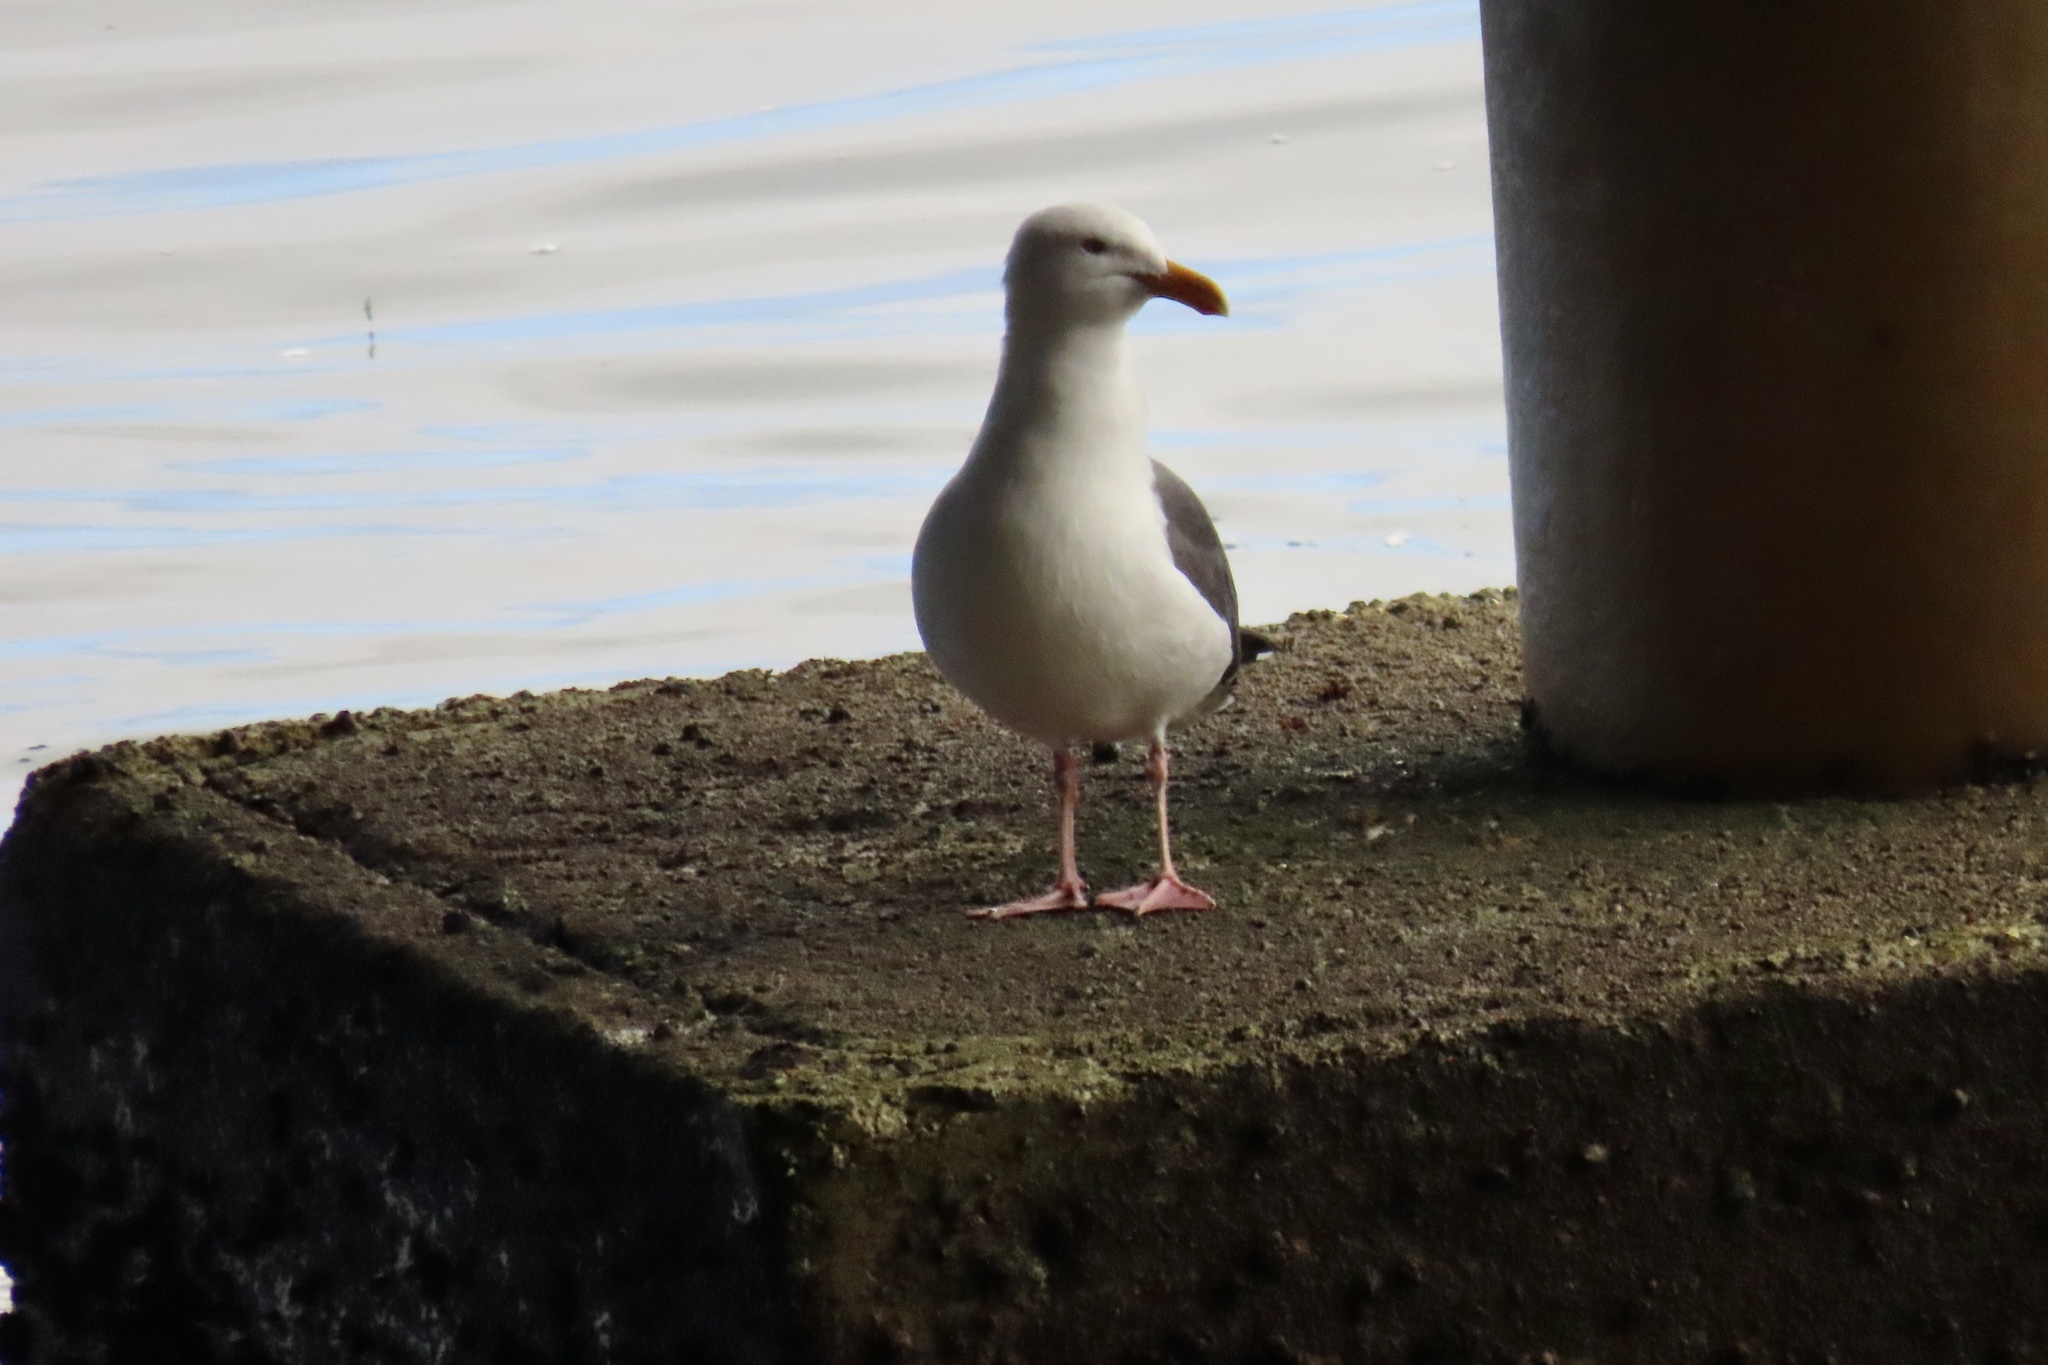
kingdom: Animalia
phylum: Chordata
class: Aves
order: Charadriiformes
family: Laridae
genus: Larus
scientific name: Larus occidentalis
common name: Western gull
